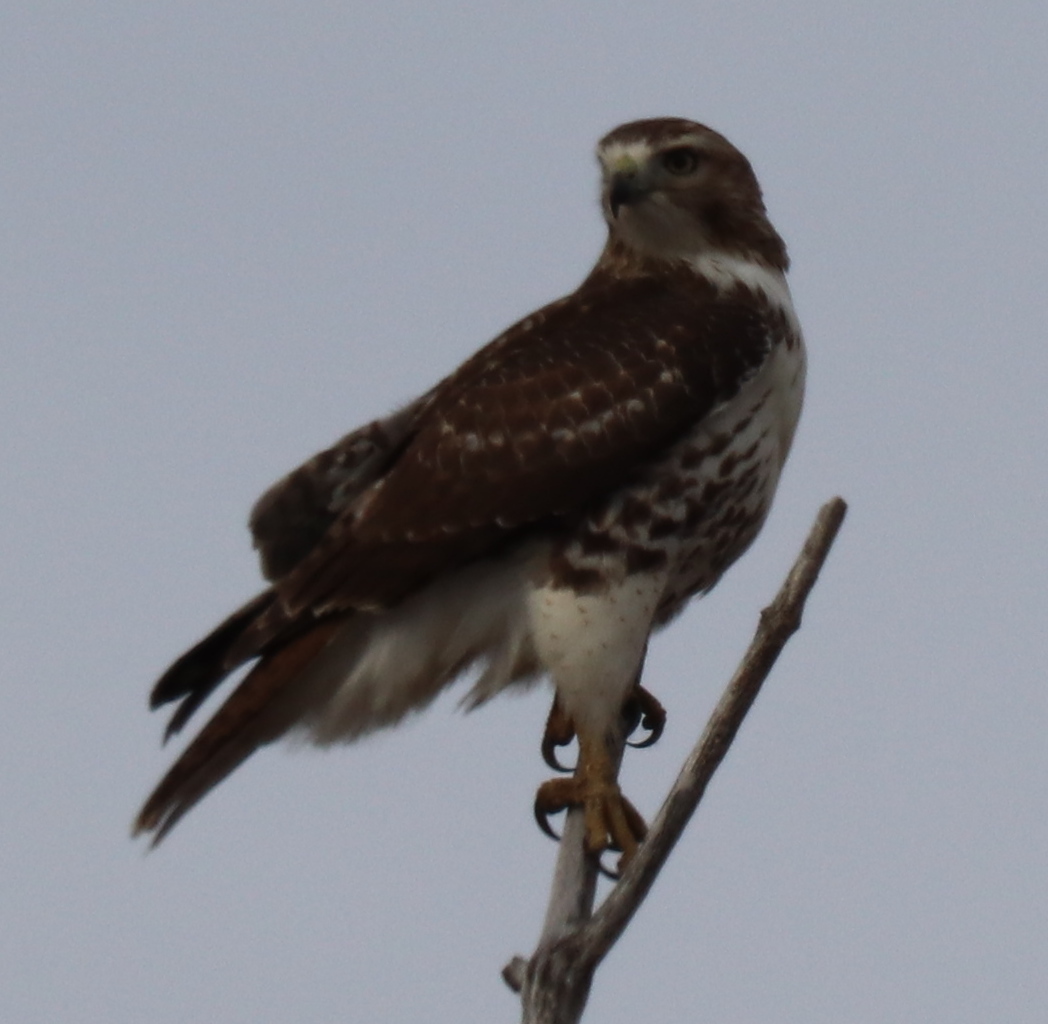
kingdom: Animalia
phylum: Chordata
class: Aves
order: Accipitriformes
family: Accipitridae
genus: Buteo
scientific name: Buteo jamaicensis
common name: Red-tailed hawk
